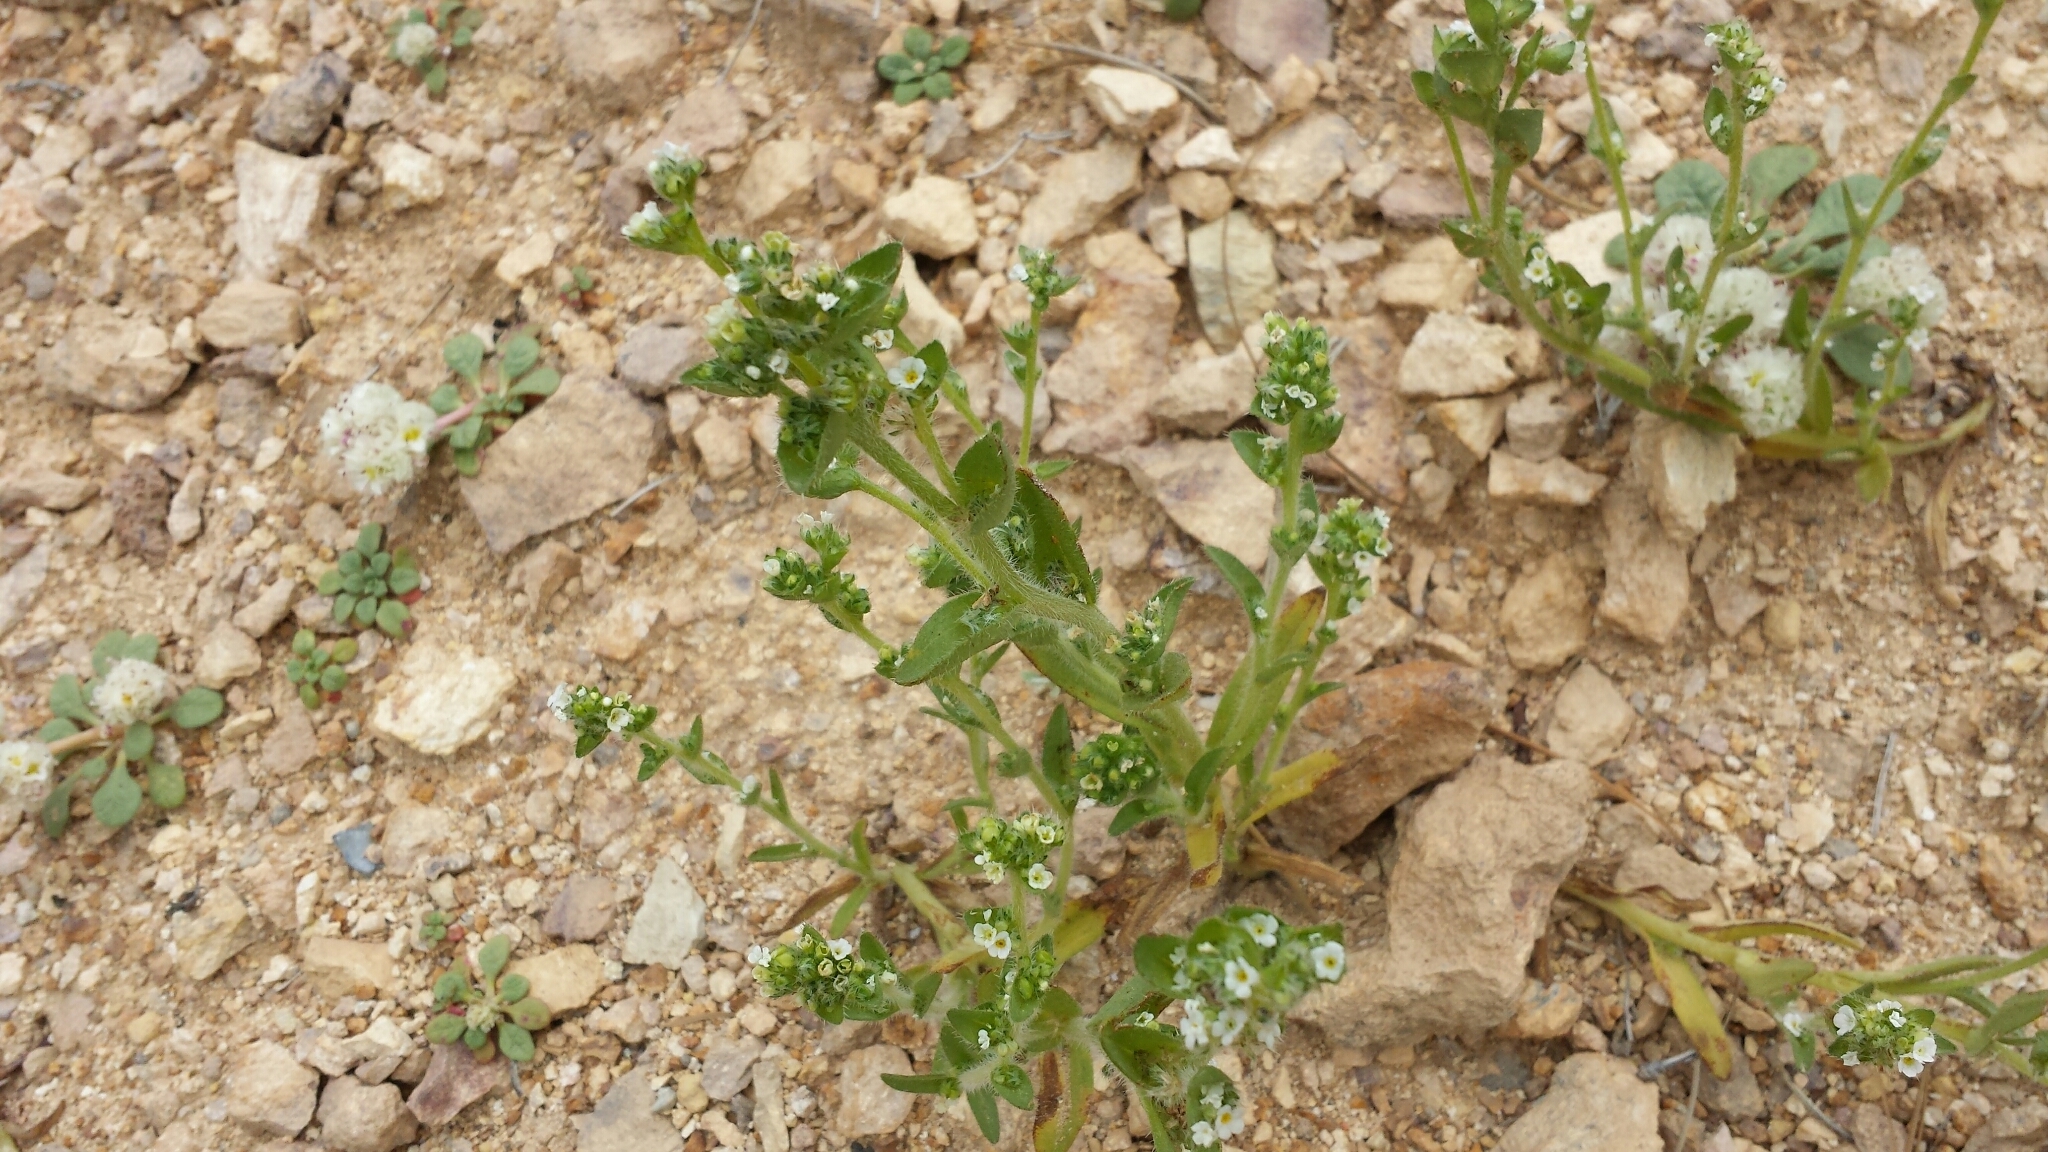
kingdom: Plantae
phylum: Tracheophyta
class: Magnoliopsida
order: Boraginales
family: Boraginaceae
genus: Plagiobothrys
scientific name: Plagiobothrys glomeratus
